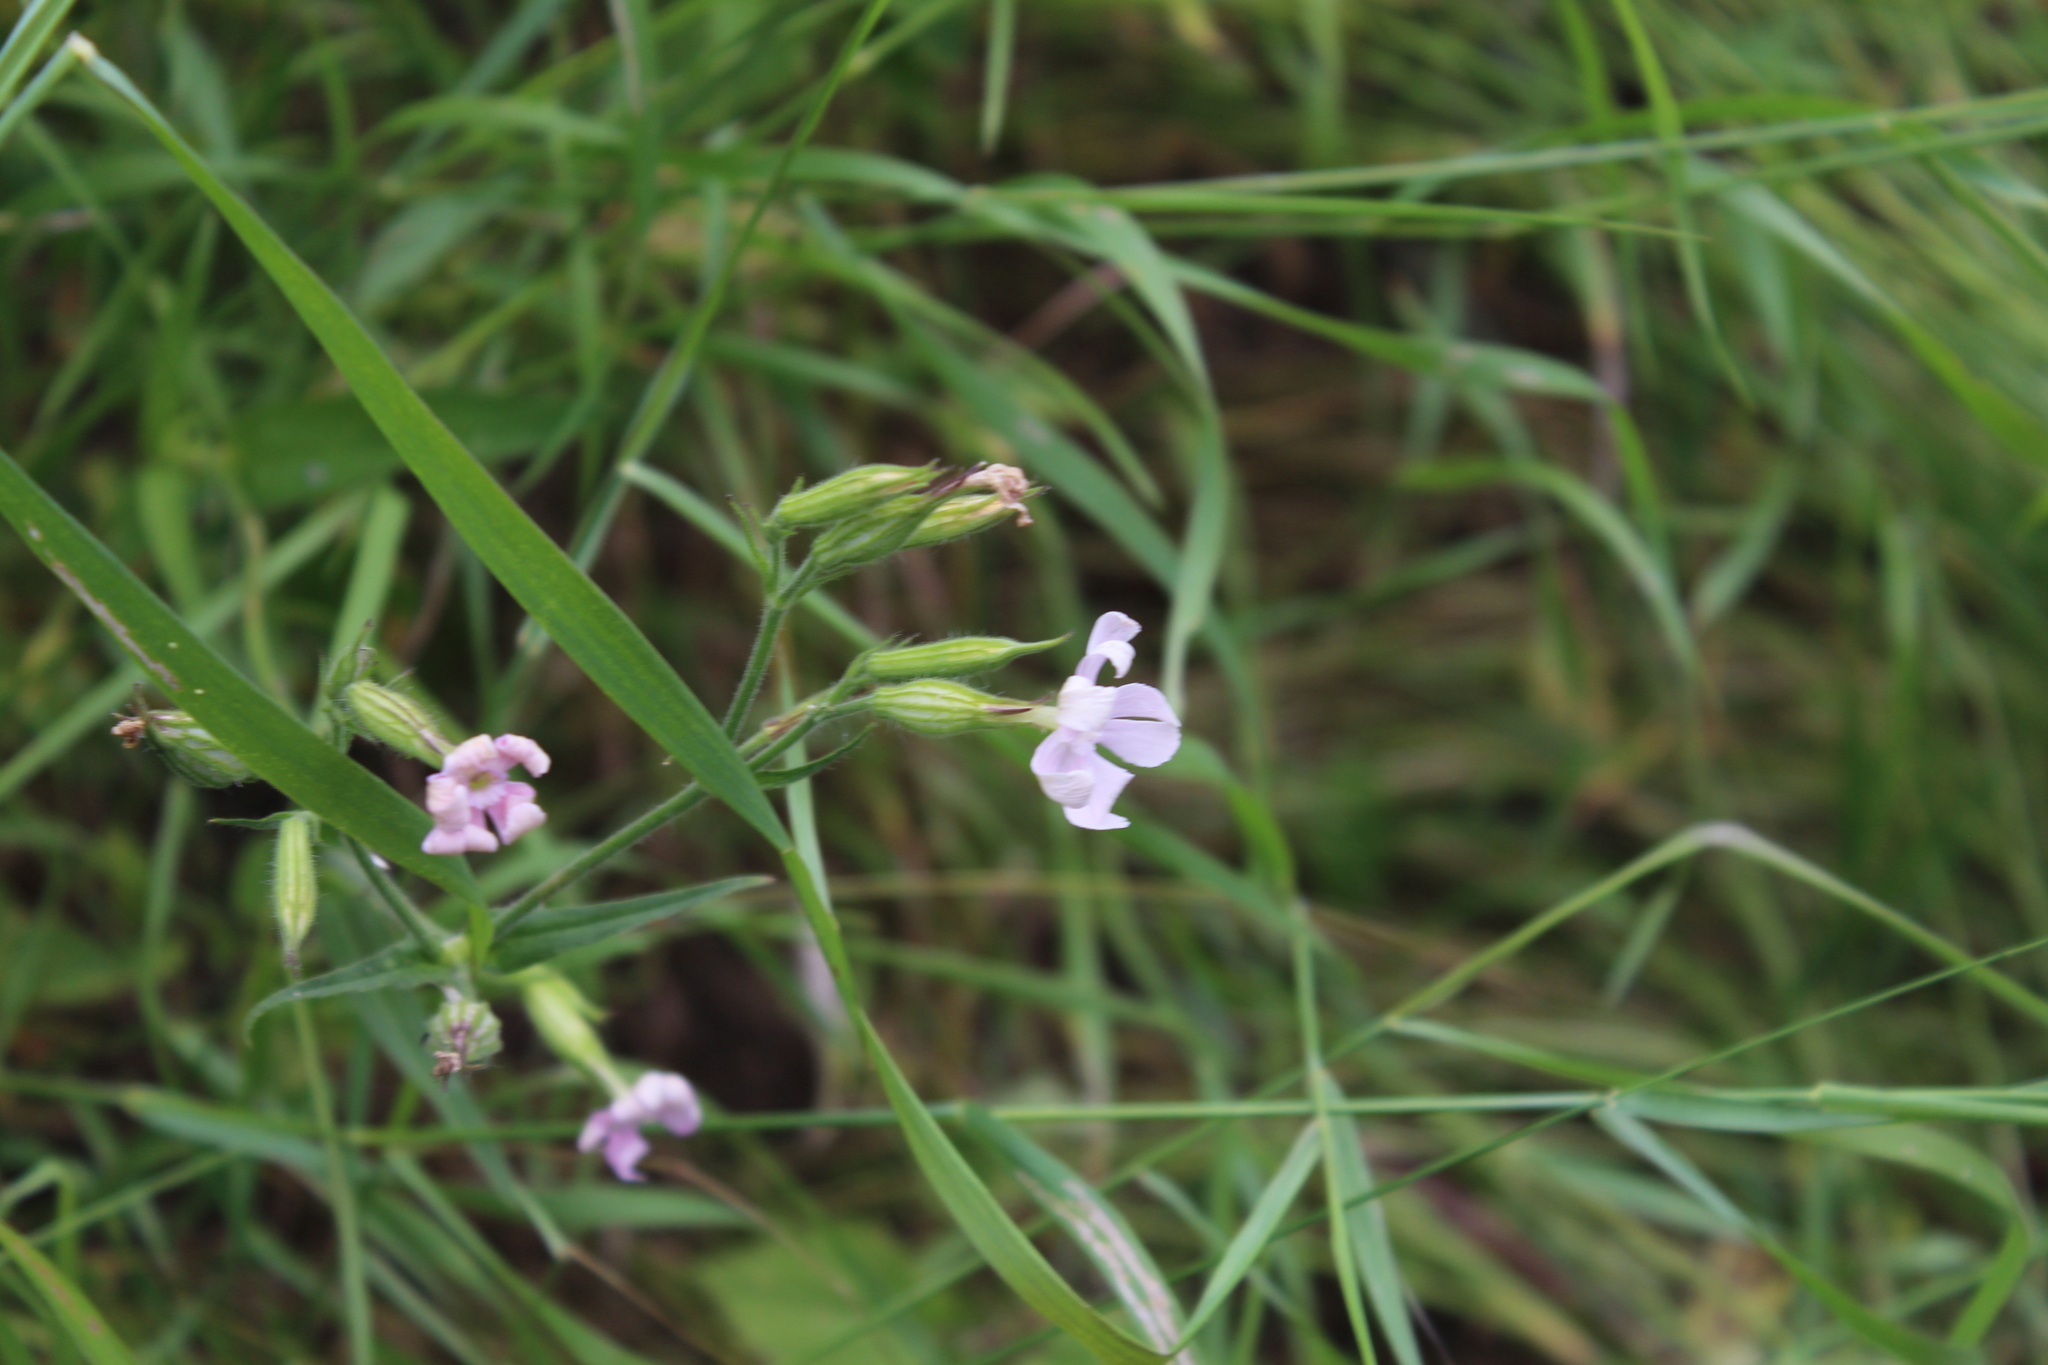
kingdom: Plantae
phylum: Tracheophyta
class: Magnoliopsida
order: Caryophyllales
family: Caryophyllaceae
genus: Silene
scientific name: Silene noctiflora
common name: Night-flowering catchfly
